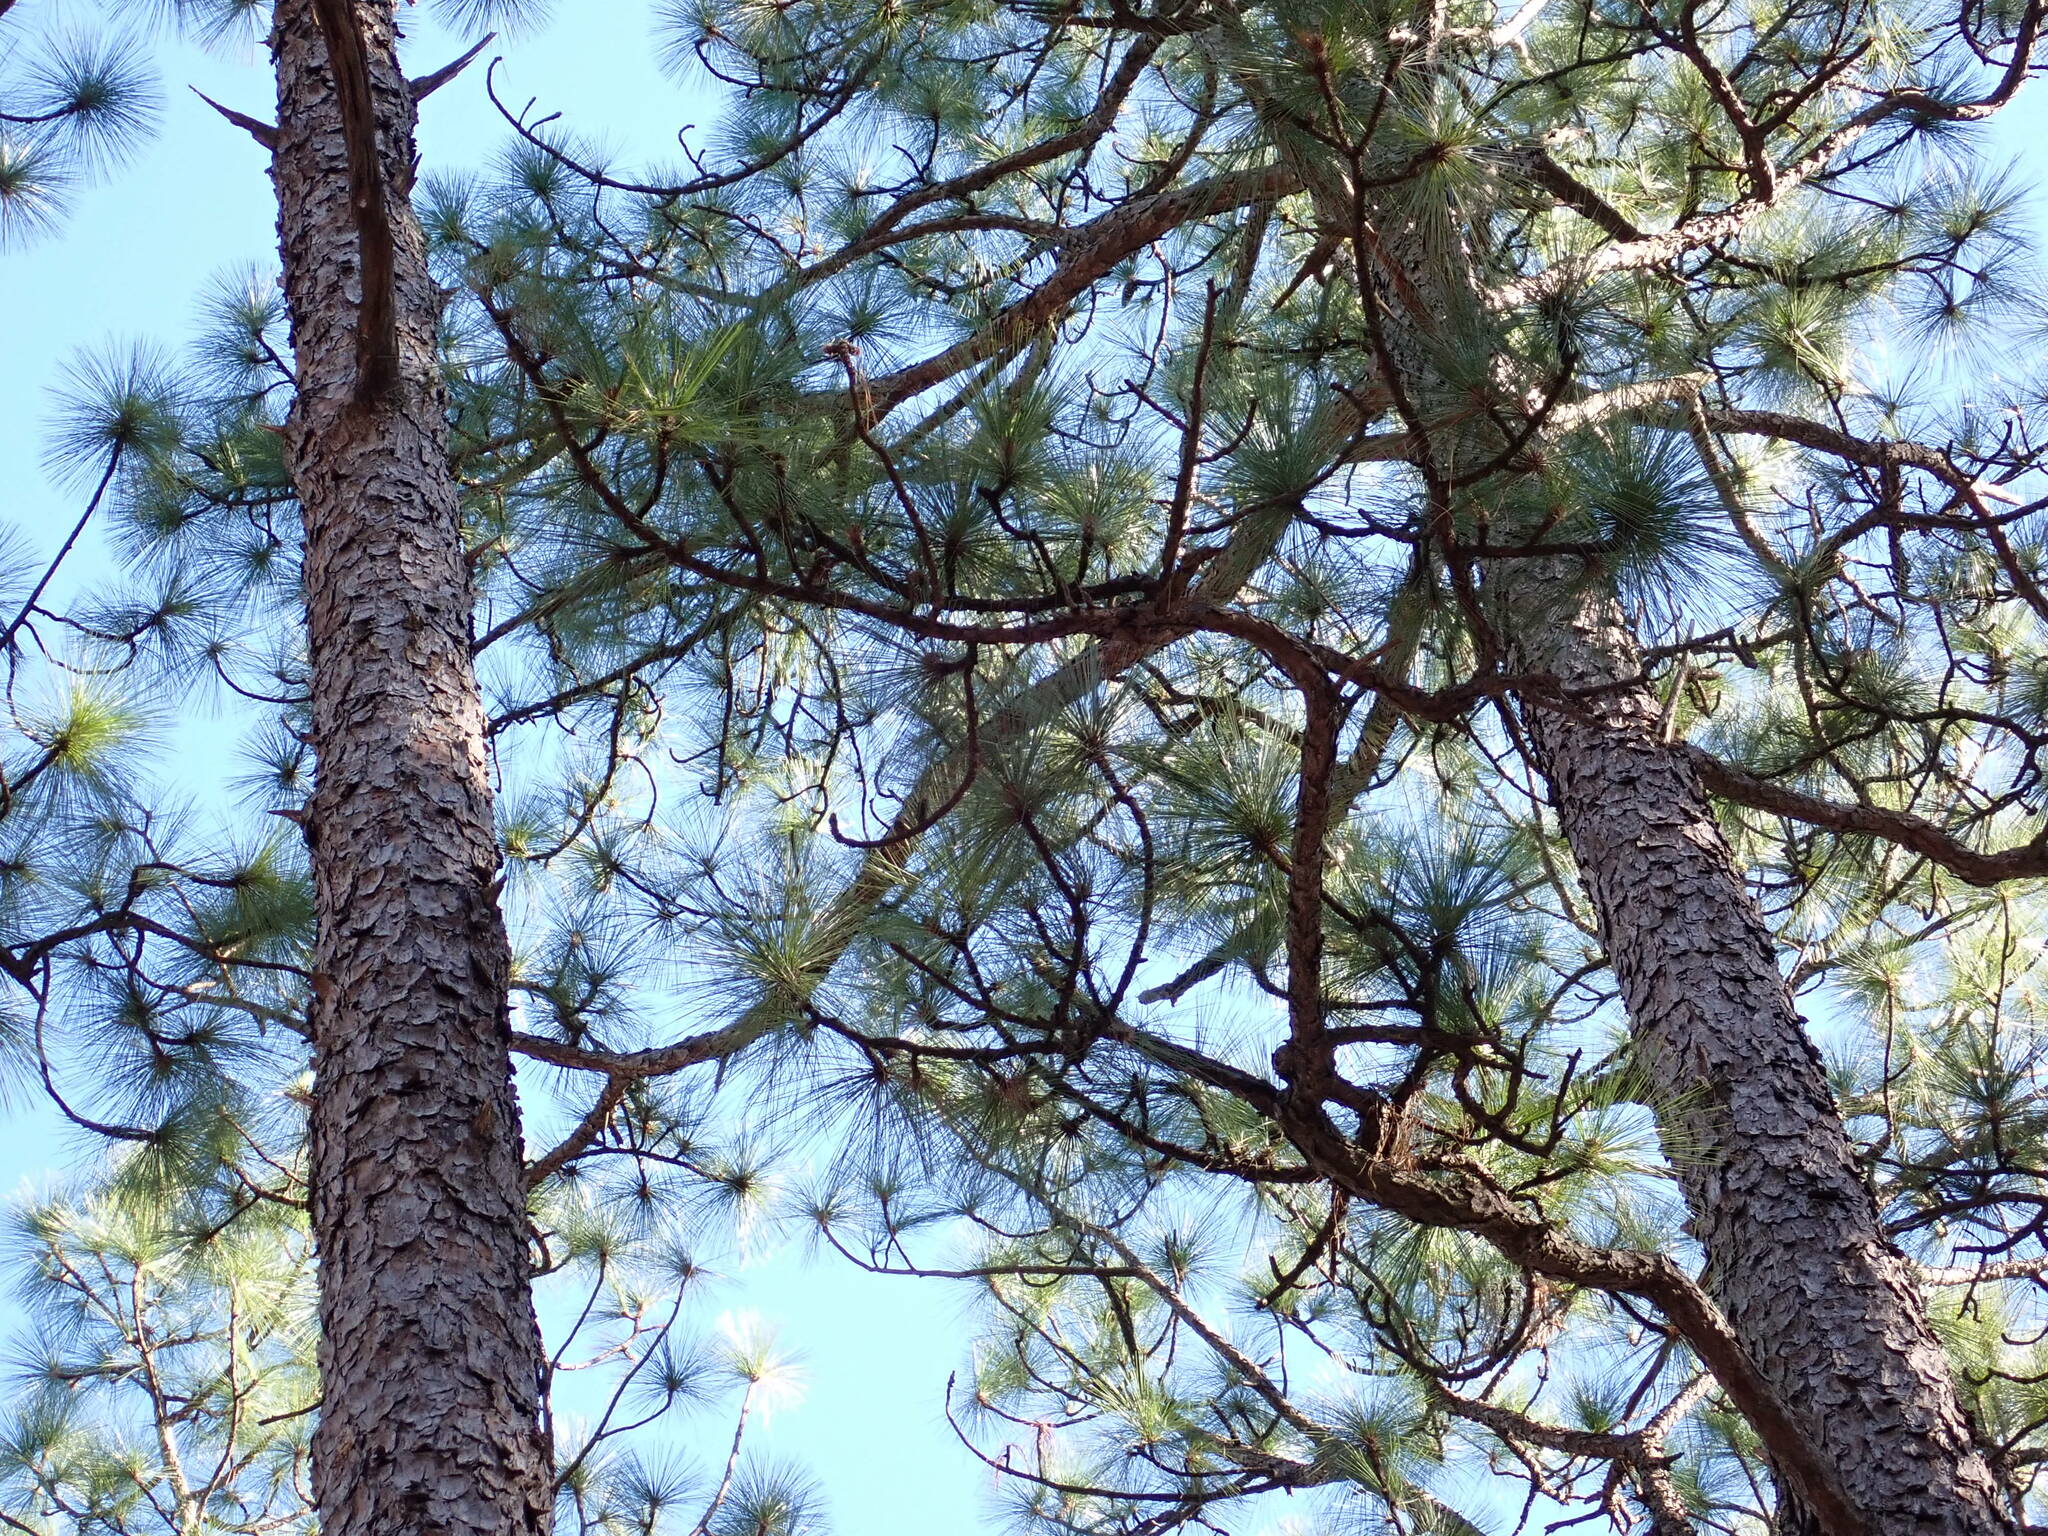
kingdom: Plantae
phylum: Tracheophyta
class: Pinopsida
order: Pinales
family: Pinaceae
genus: Pinus
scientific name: Pinus palustris
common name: Longleaf pine
